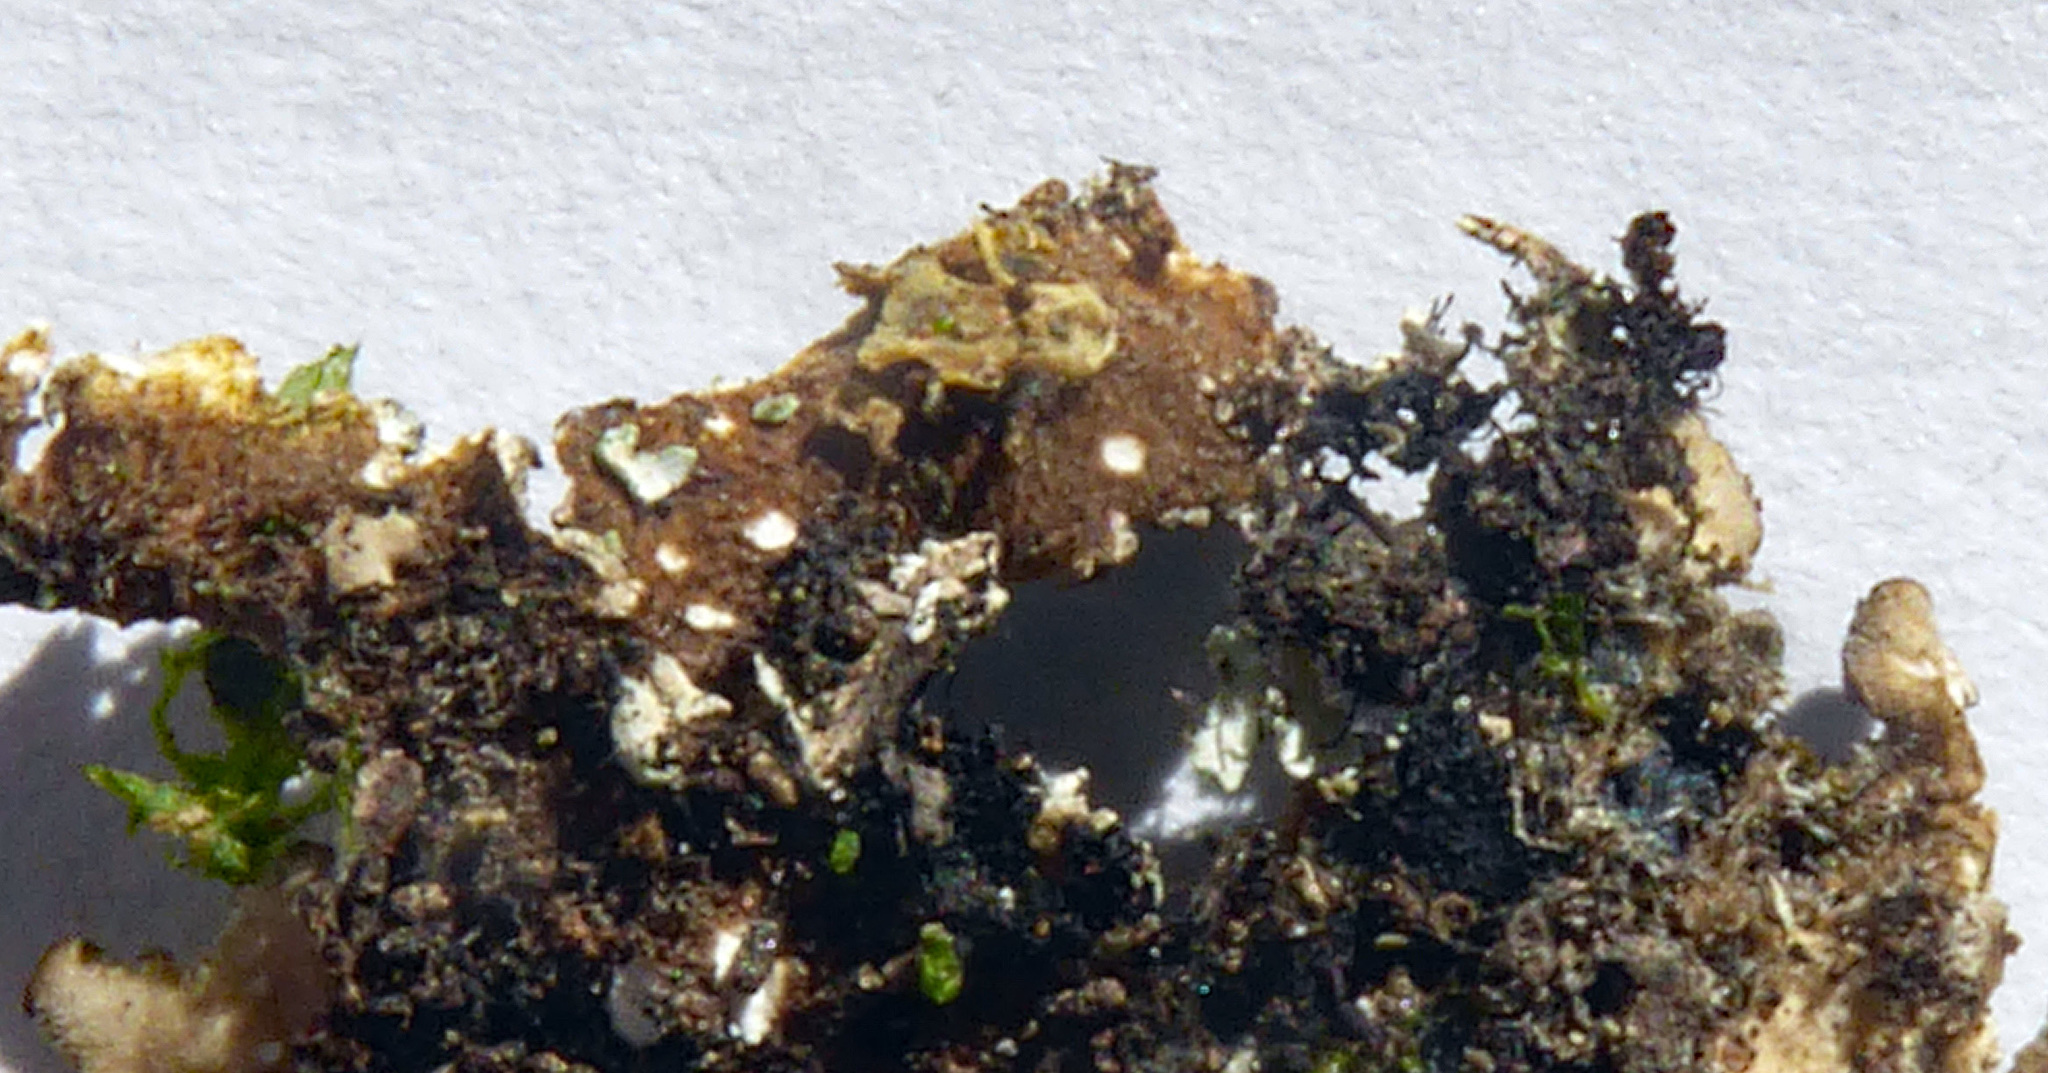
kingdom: Fungi
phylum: Ascomycota
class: Lecanoromycetes
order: Peltigerales
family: Lobariaceae
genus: Pseudocyphellaria
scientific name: Pseudocyphellaria haywardiorum
